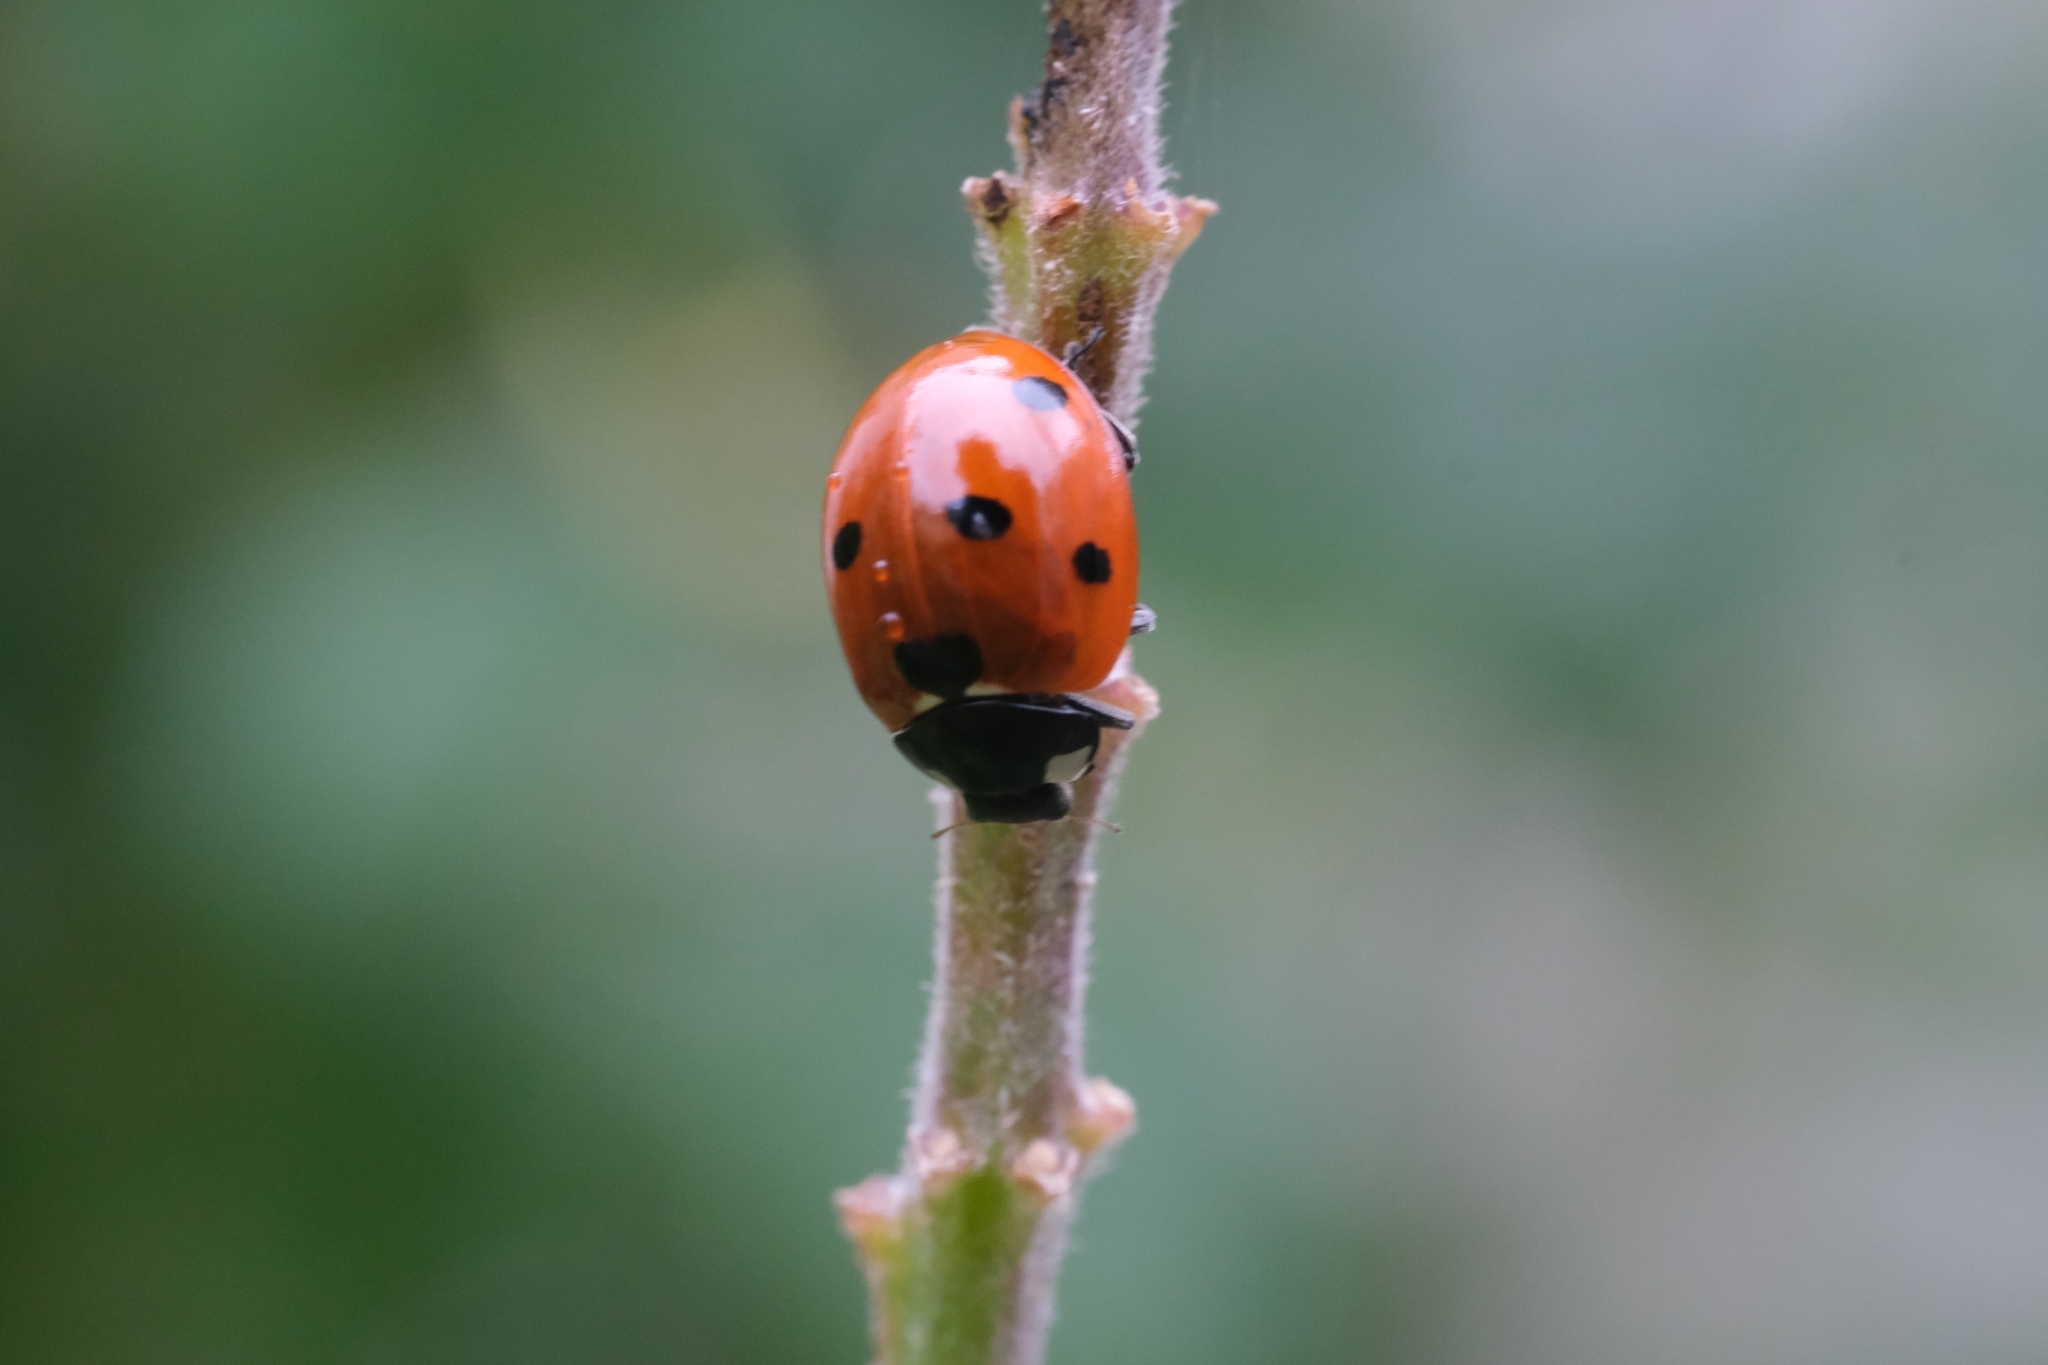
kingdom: Animalia
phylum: Arthropoda
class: Insecta
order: Coleoptera
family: Coccinellidae
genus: Coccinella
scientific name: Coccinella septempunctata
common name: Sevenspotted lady beetle
